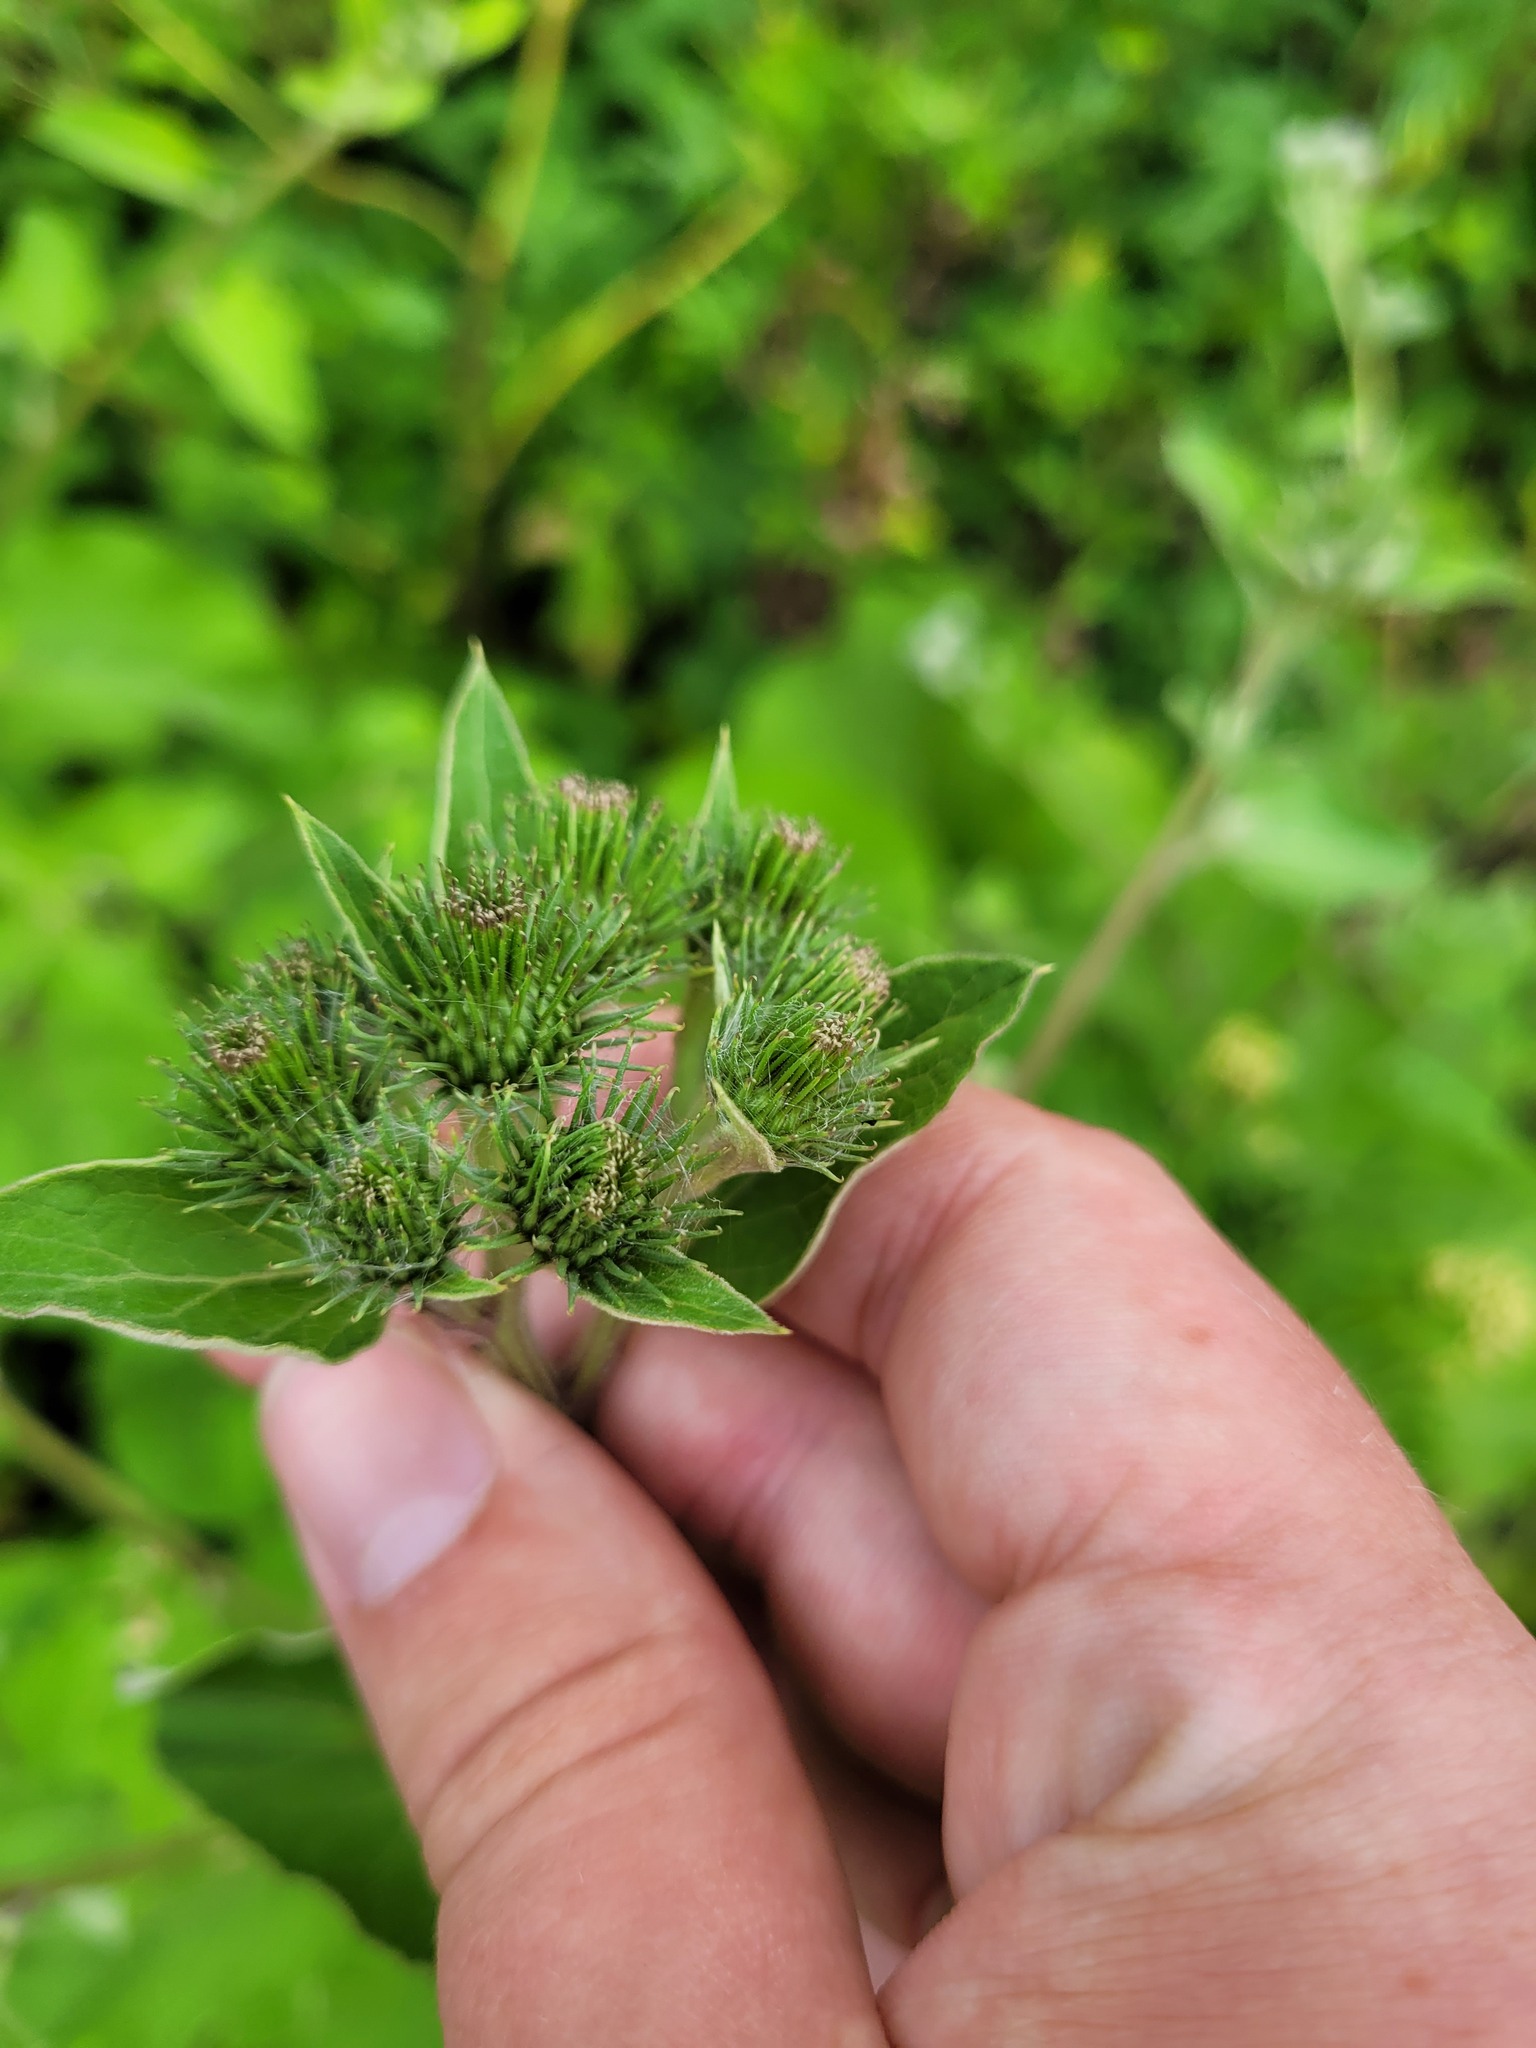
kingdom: Plantae
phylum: Tracheophyta
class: Magnoliopsida
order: Asterales
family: Asteraceae
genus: Arctium
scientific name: Arctium mixtum
